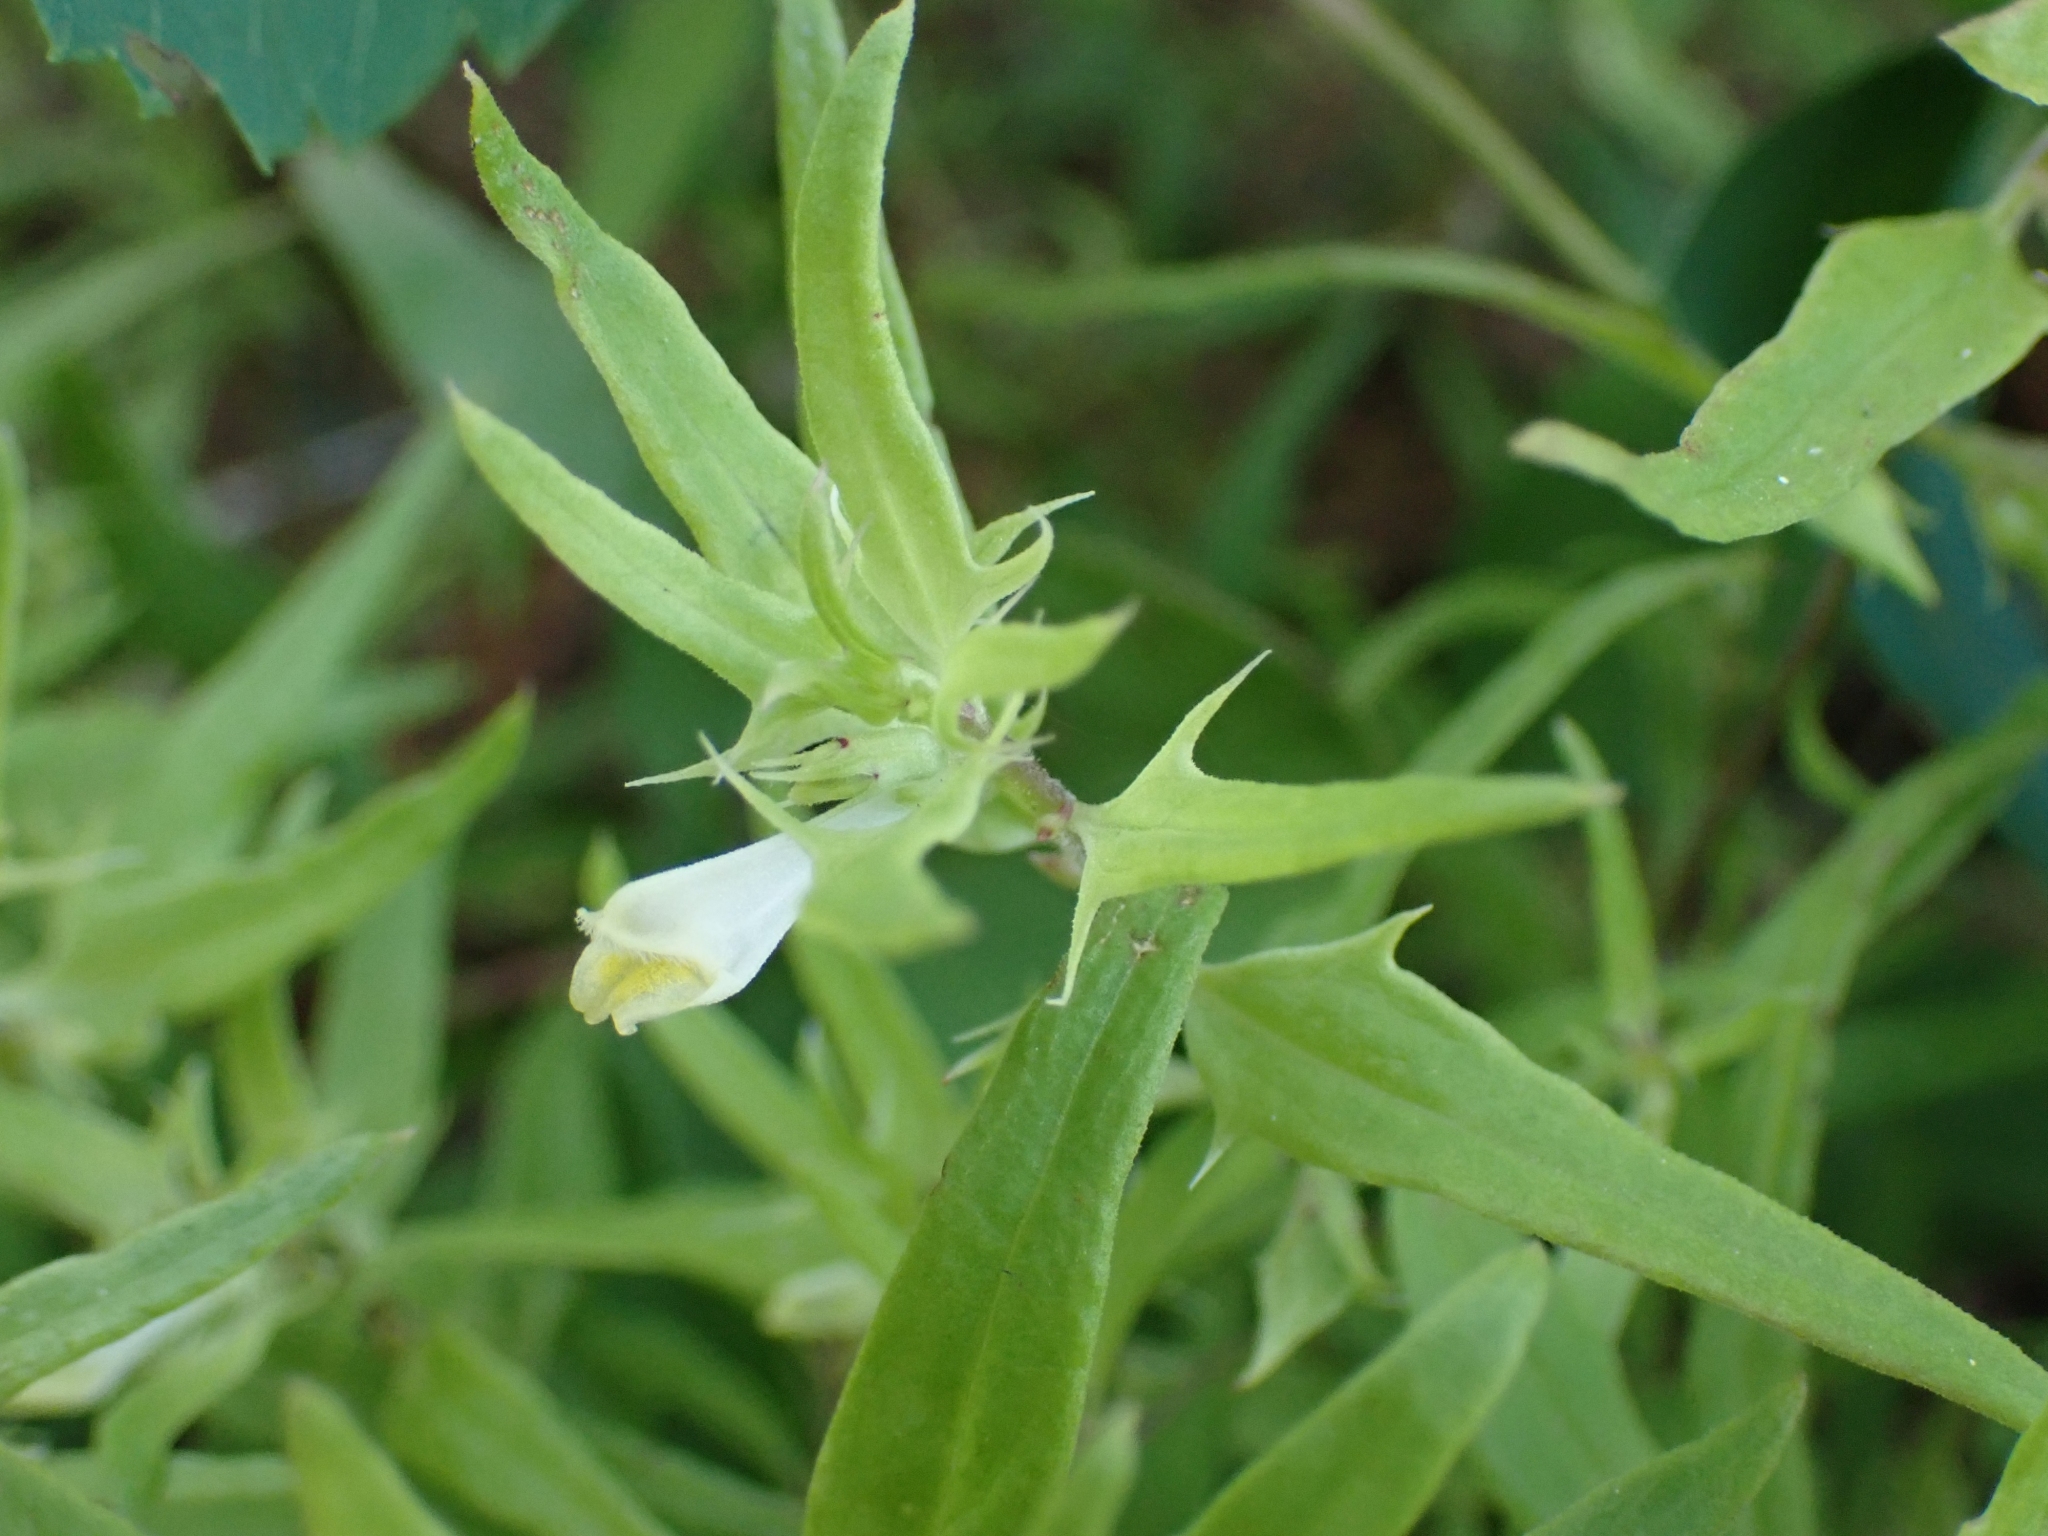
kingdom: Plantae
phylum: Tracheophyta
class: Magnoliopsida
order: Lamiales
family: Orobanchaceae
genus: Melampyrum
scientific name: Melampyrum lineare
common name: American cow-wheat
